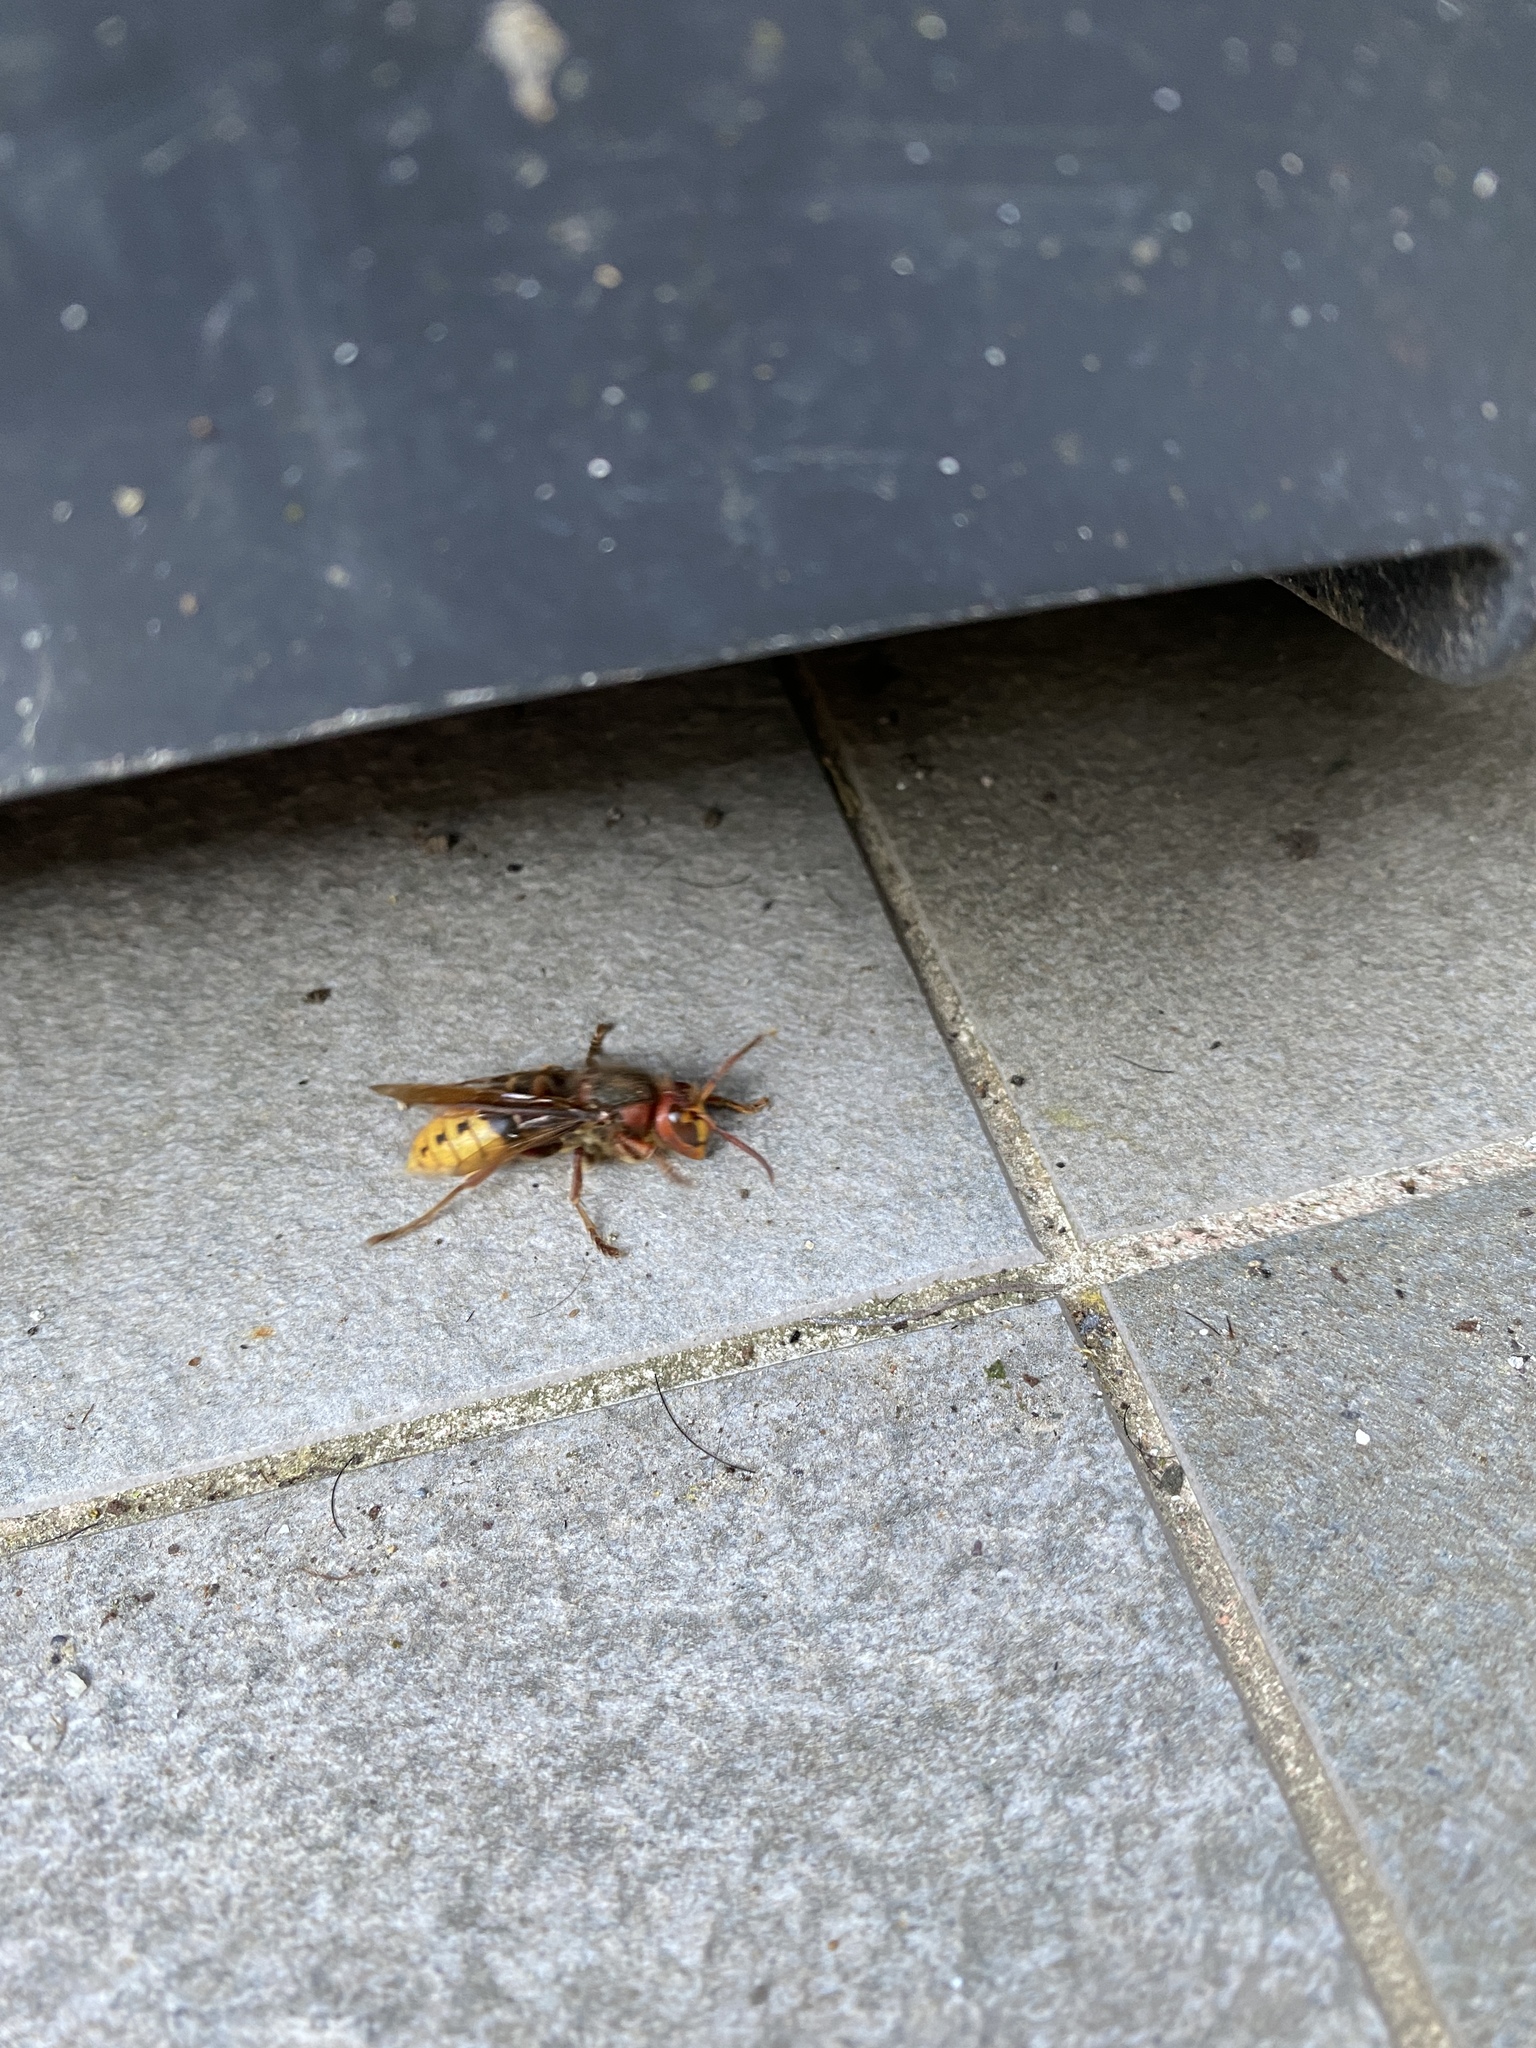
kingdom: Animalia
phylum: Arthropoda
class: Insecta
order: Hymenoptera
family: Vespidae
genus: Vespa
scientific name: Vespa crabro
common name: Hornet
